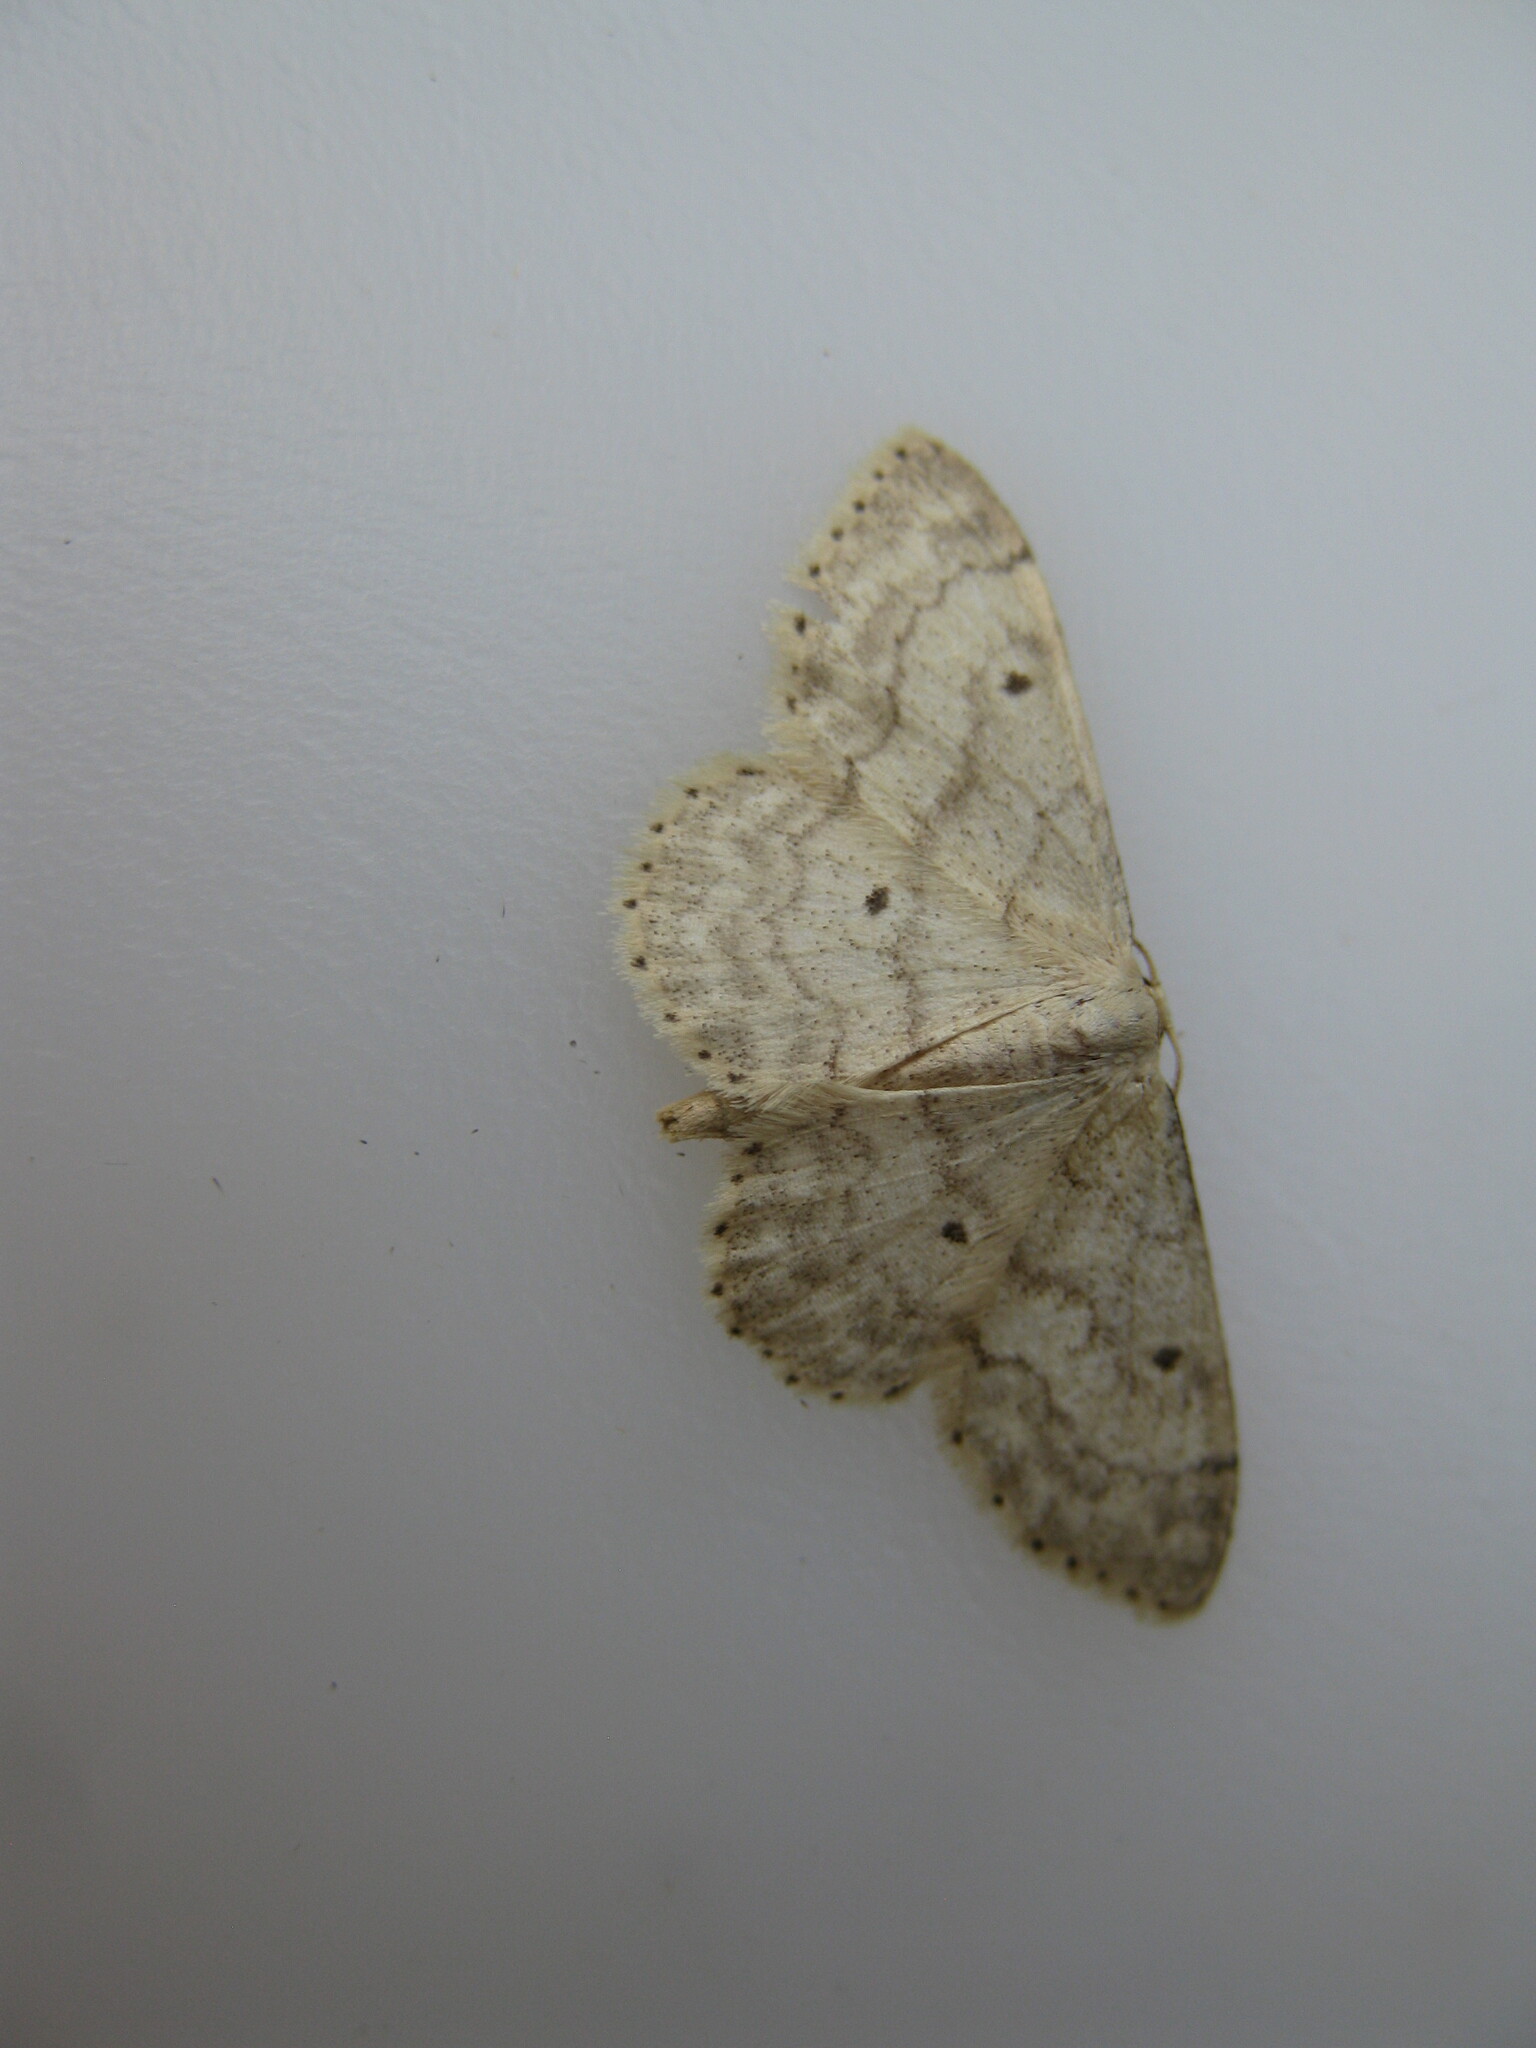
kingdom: Animalia
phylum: Arthropoda
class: Insecta
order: Lepidoptera
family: Geometridae
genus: Idaea
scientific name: Idaea biselata
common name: Small fan-footed wave
